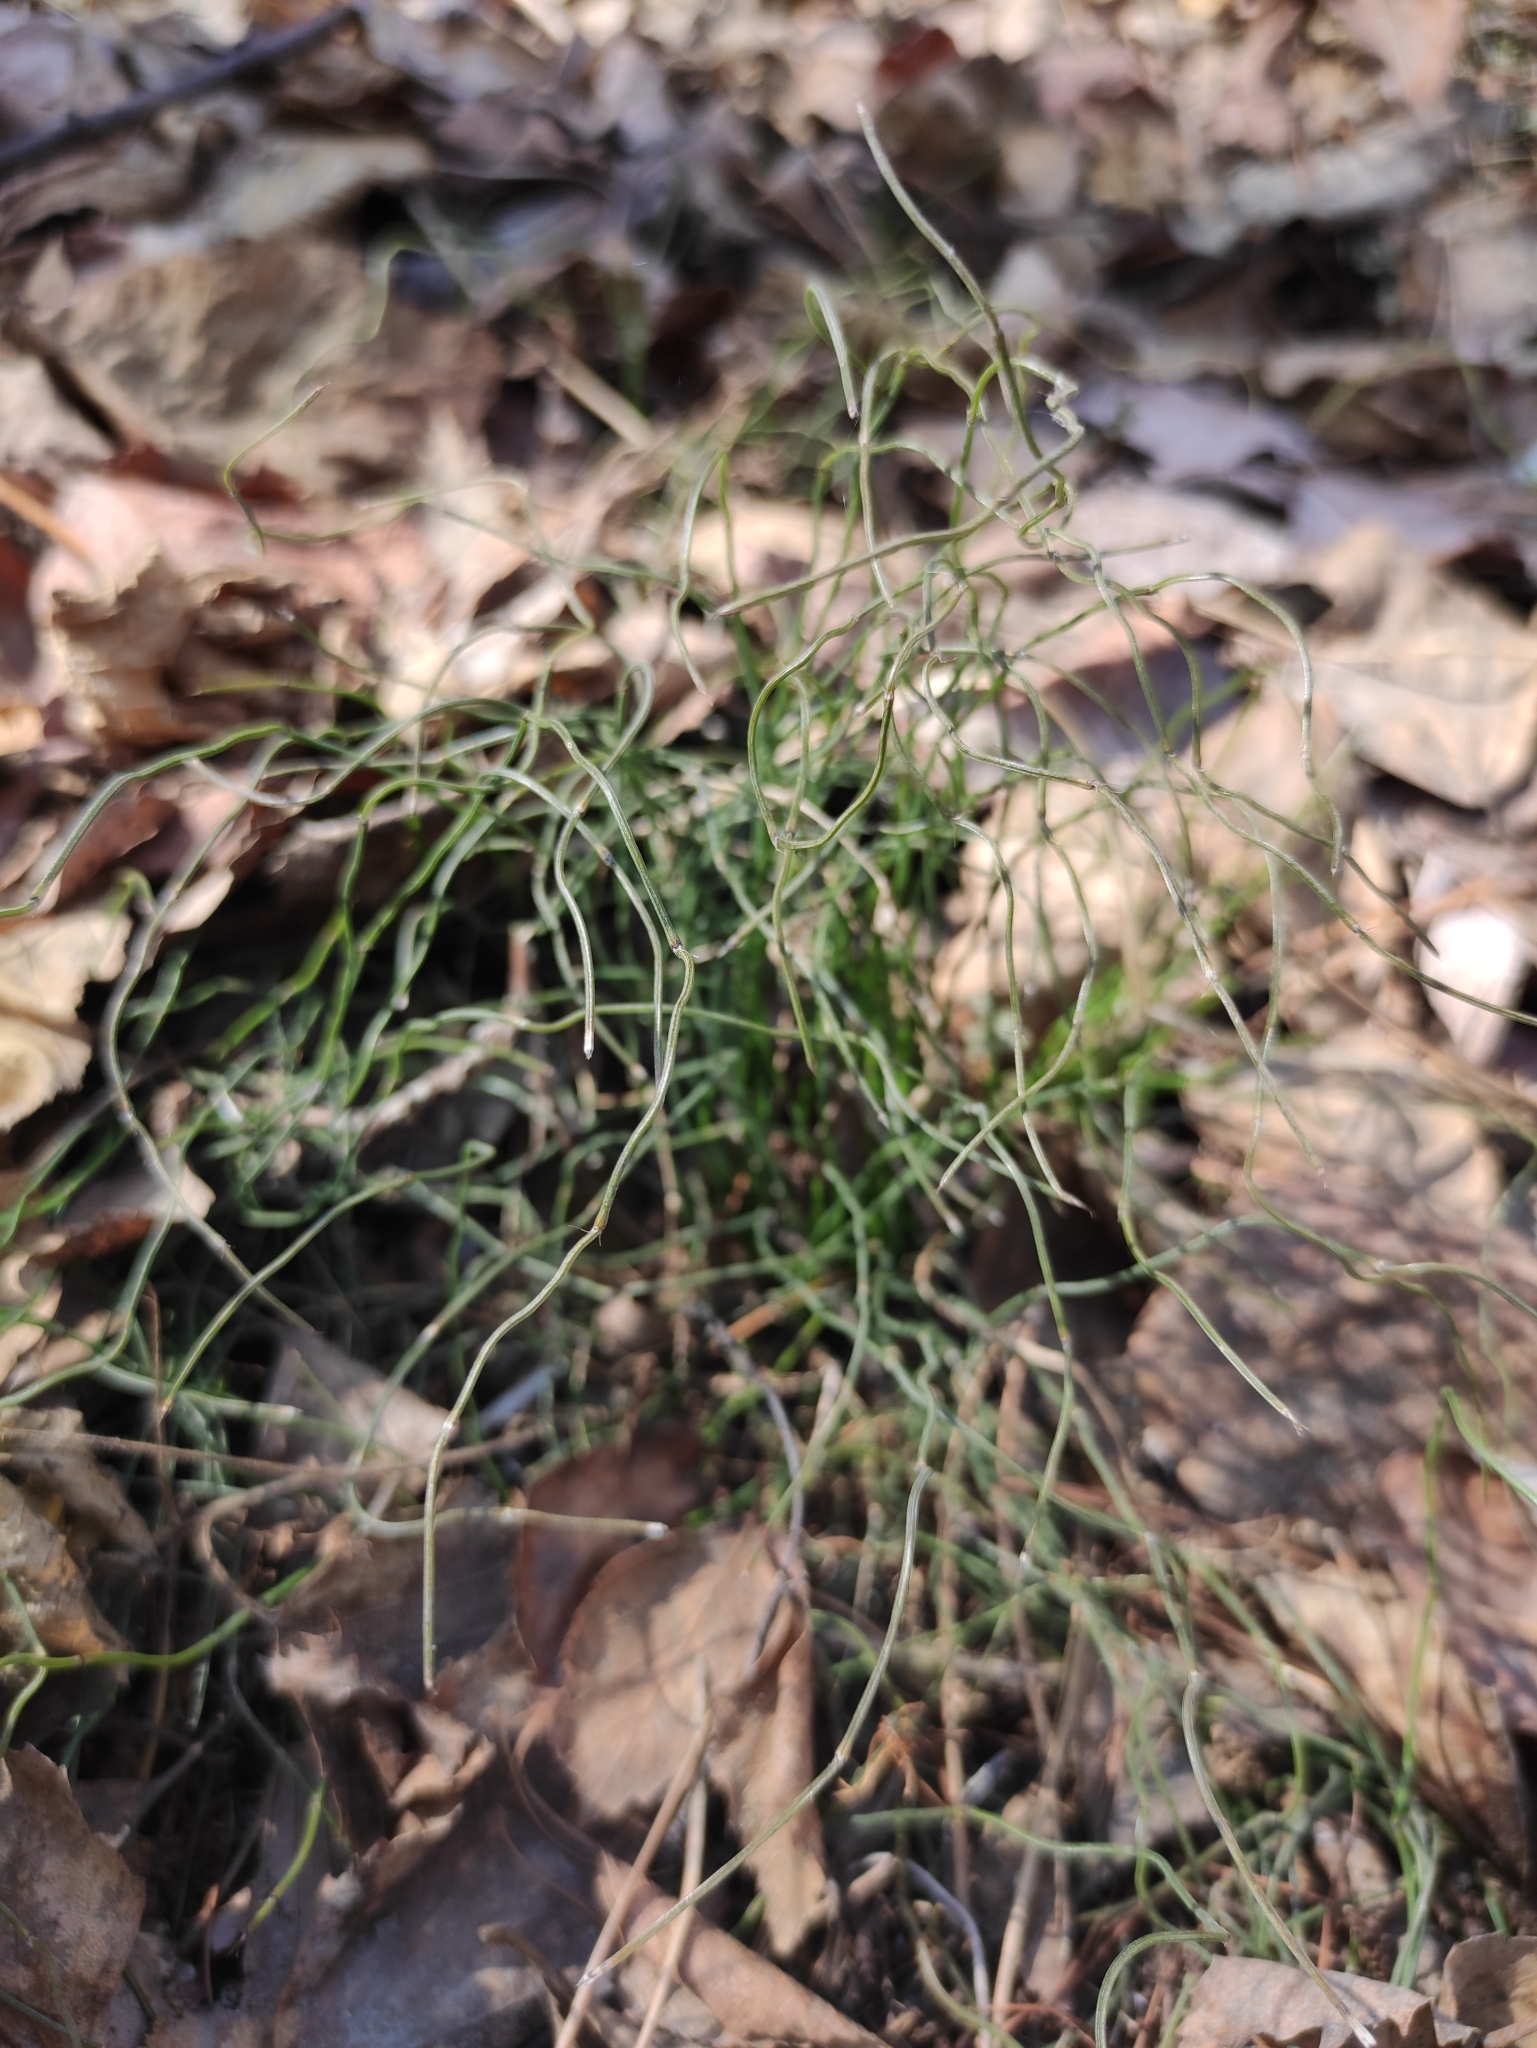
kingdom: Plantae
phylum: Tracheophyta
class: Polypodiopsida
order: Equisetales
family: Equisetaceae
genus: Equisetum
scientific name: Equisetum scirpoides
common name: Delicate horsetail
